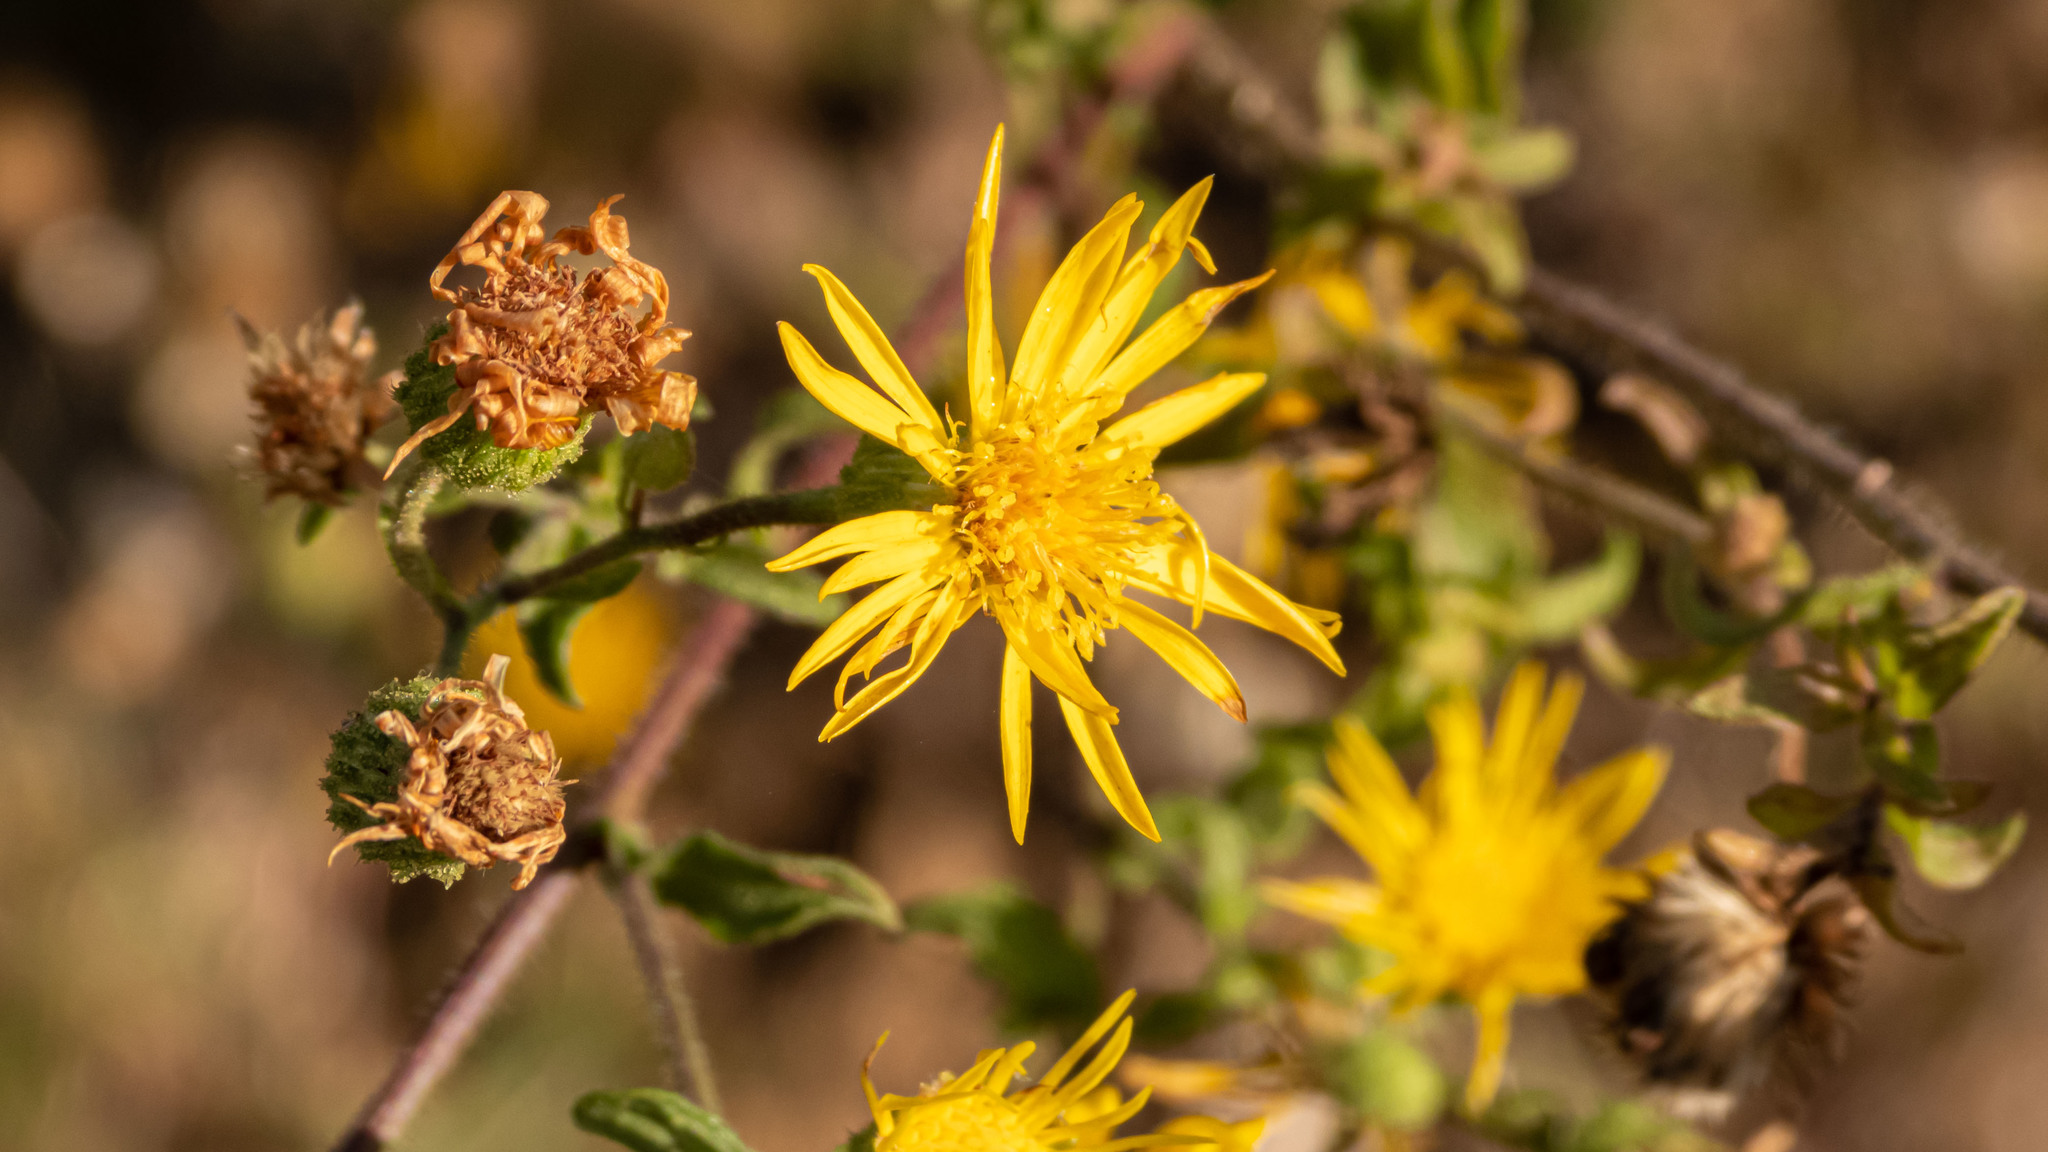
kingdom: Plantae
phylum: Tracheophyta
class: Magnoliopsida
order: Asterales
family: Asteraceae
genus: Heterotheca
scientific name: Heterotheca subaxillaris
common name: Camphorweed
